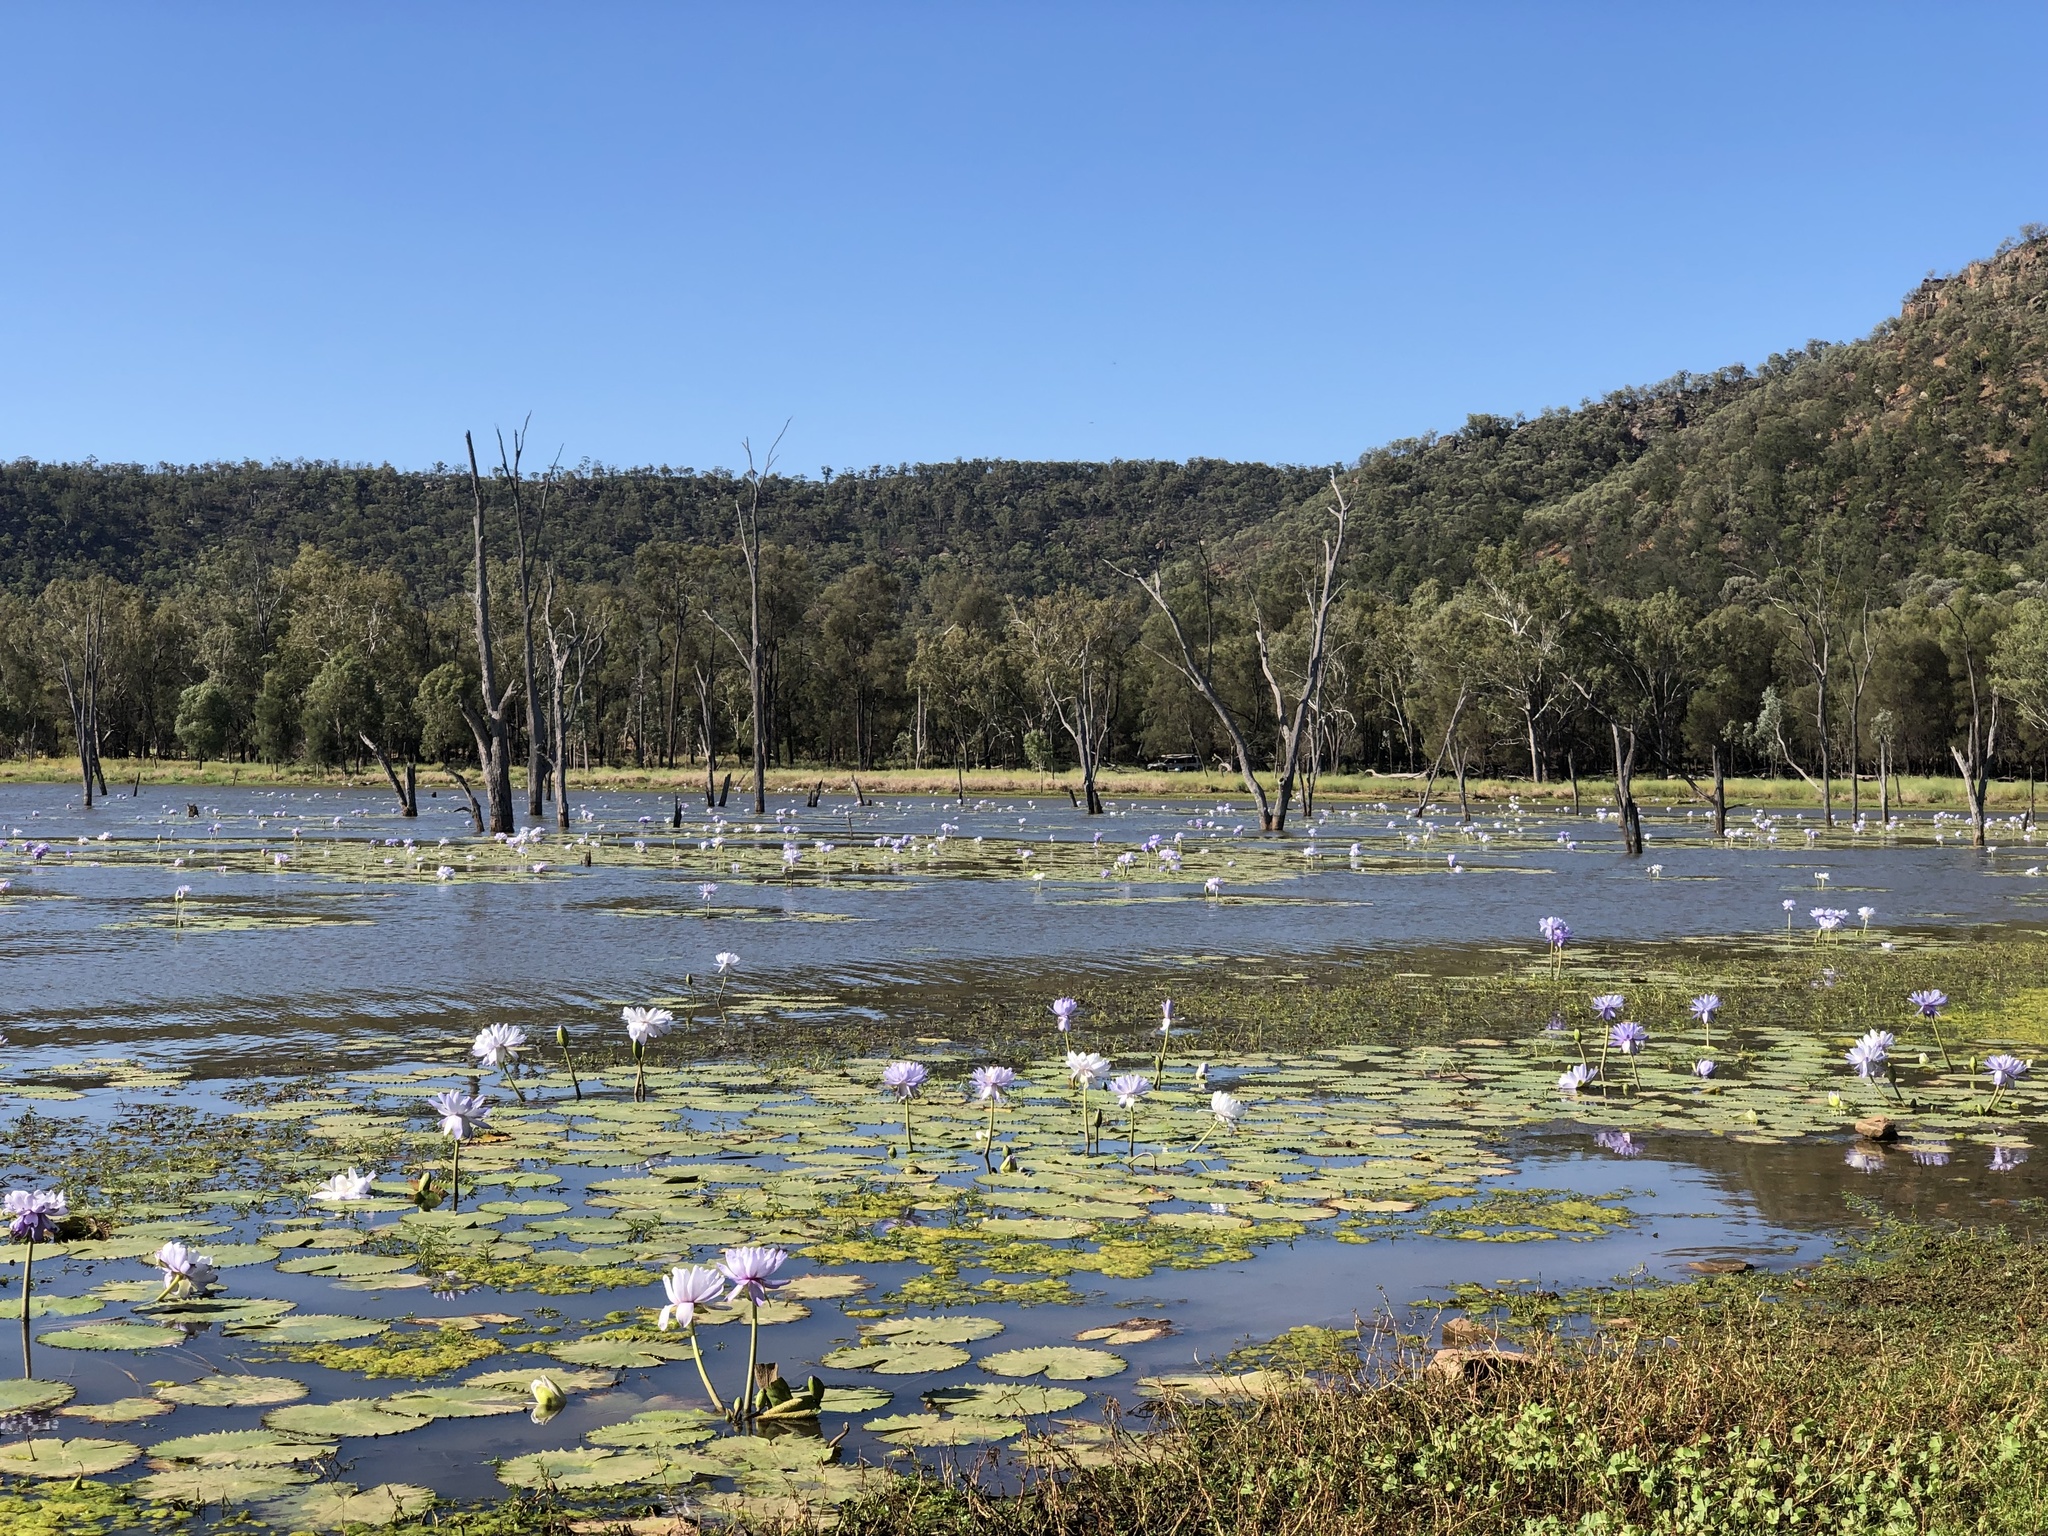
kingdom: Plantae
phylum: Tracheophyta
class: Magnoliopsida
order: Nymphaeales
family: Nymphaeaceae
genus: Nymphaea
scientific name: Nymphaea gigantea
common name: Giant water-lily
